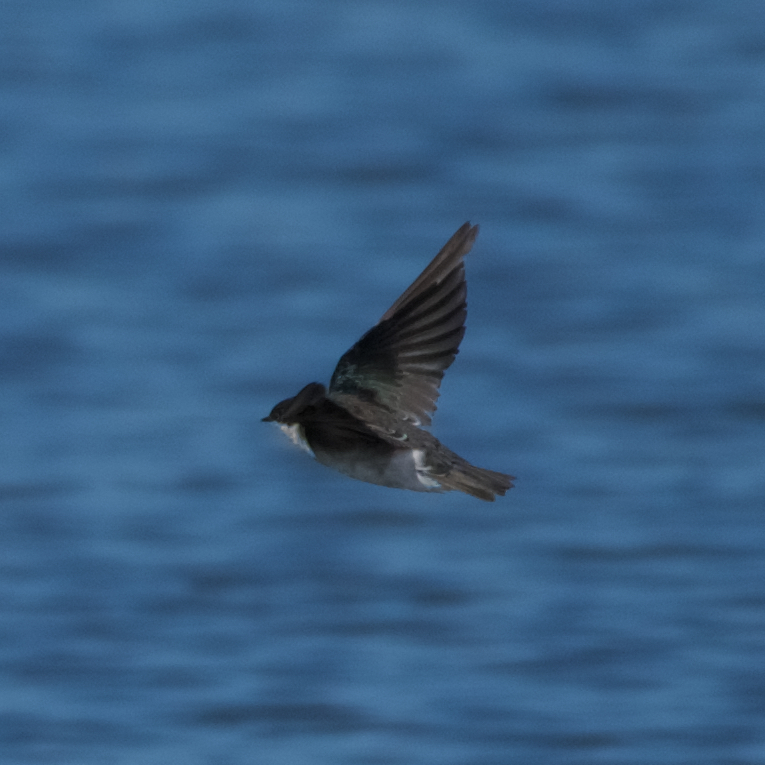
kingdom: Animalia
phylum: Chordata
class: Aves
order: Passeriformes
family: Hirundinidae
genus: Tachycineta
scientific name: Tachycineta bicolor
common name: Tree swallow
